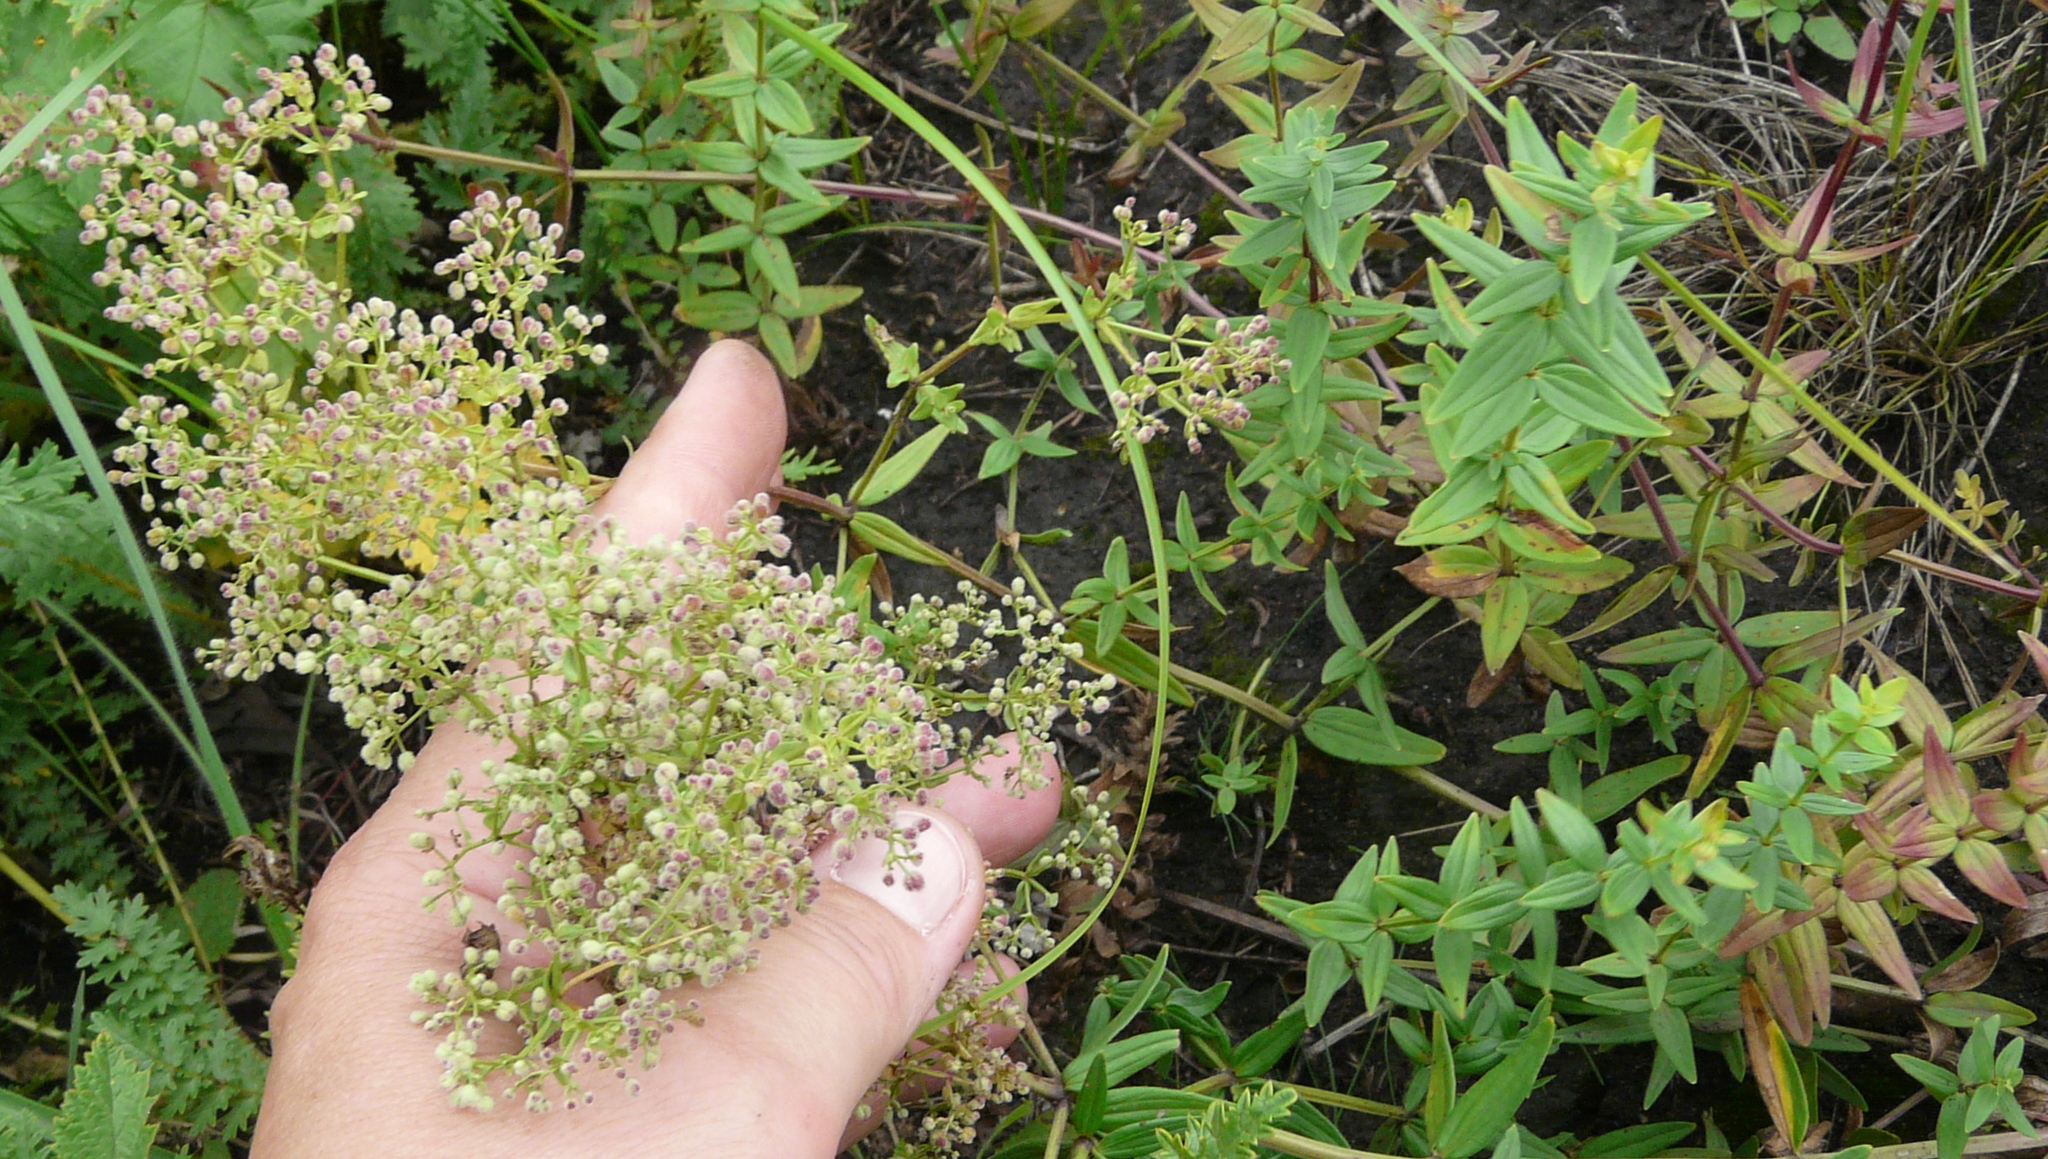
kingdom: Plantae
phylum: Tracheophyta
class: Magnoliopsida
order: Gentianales
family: Rubiaceae
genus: Galium
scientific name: Galium rubioides
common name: European bedstraw
